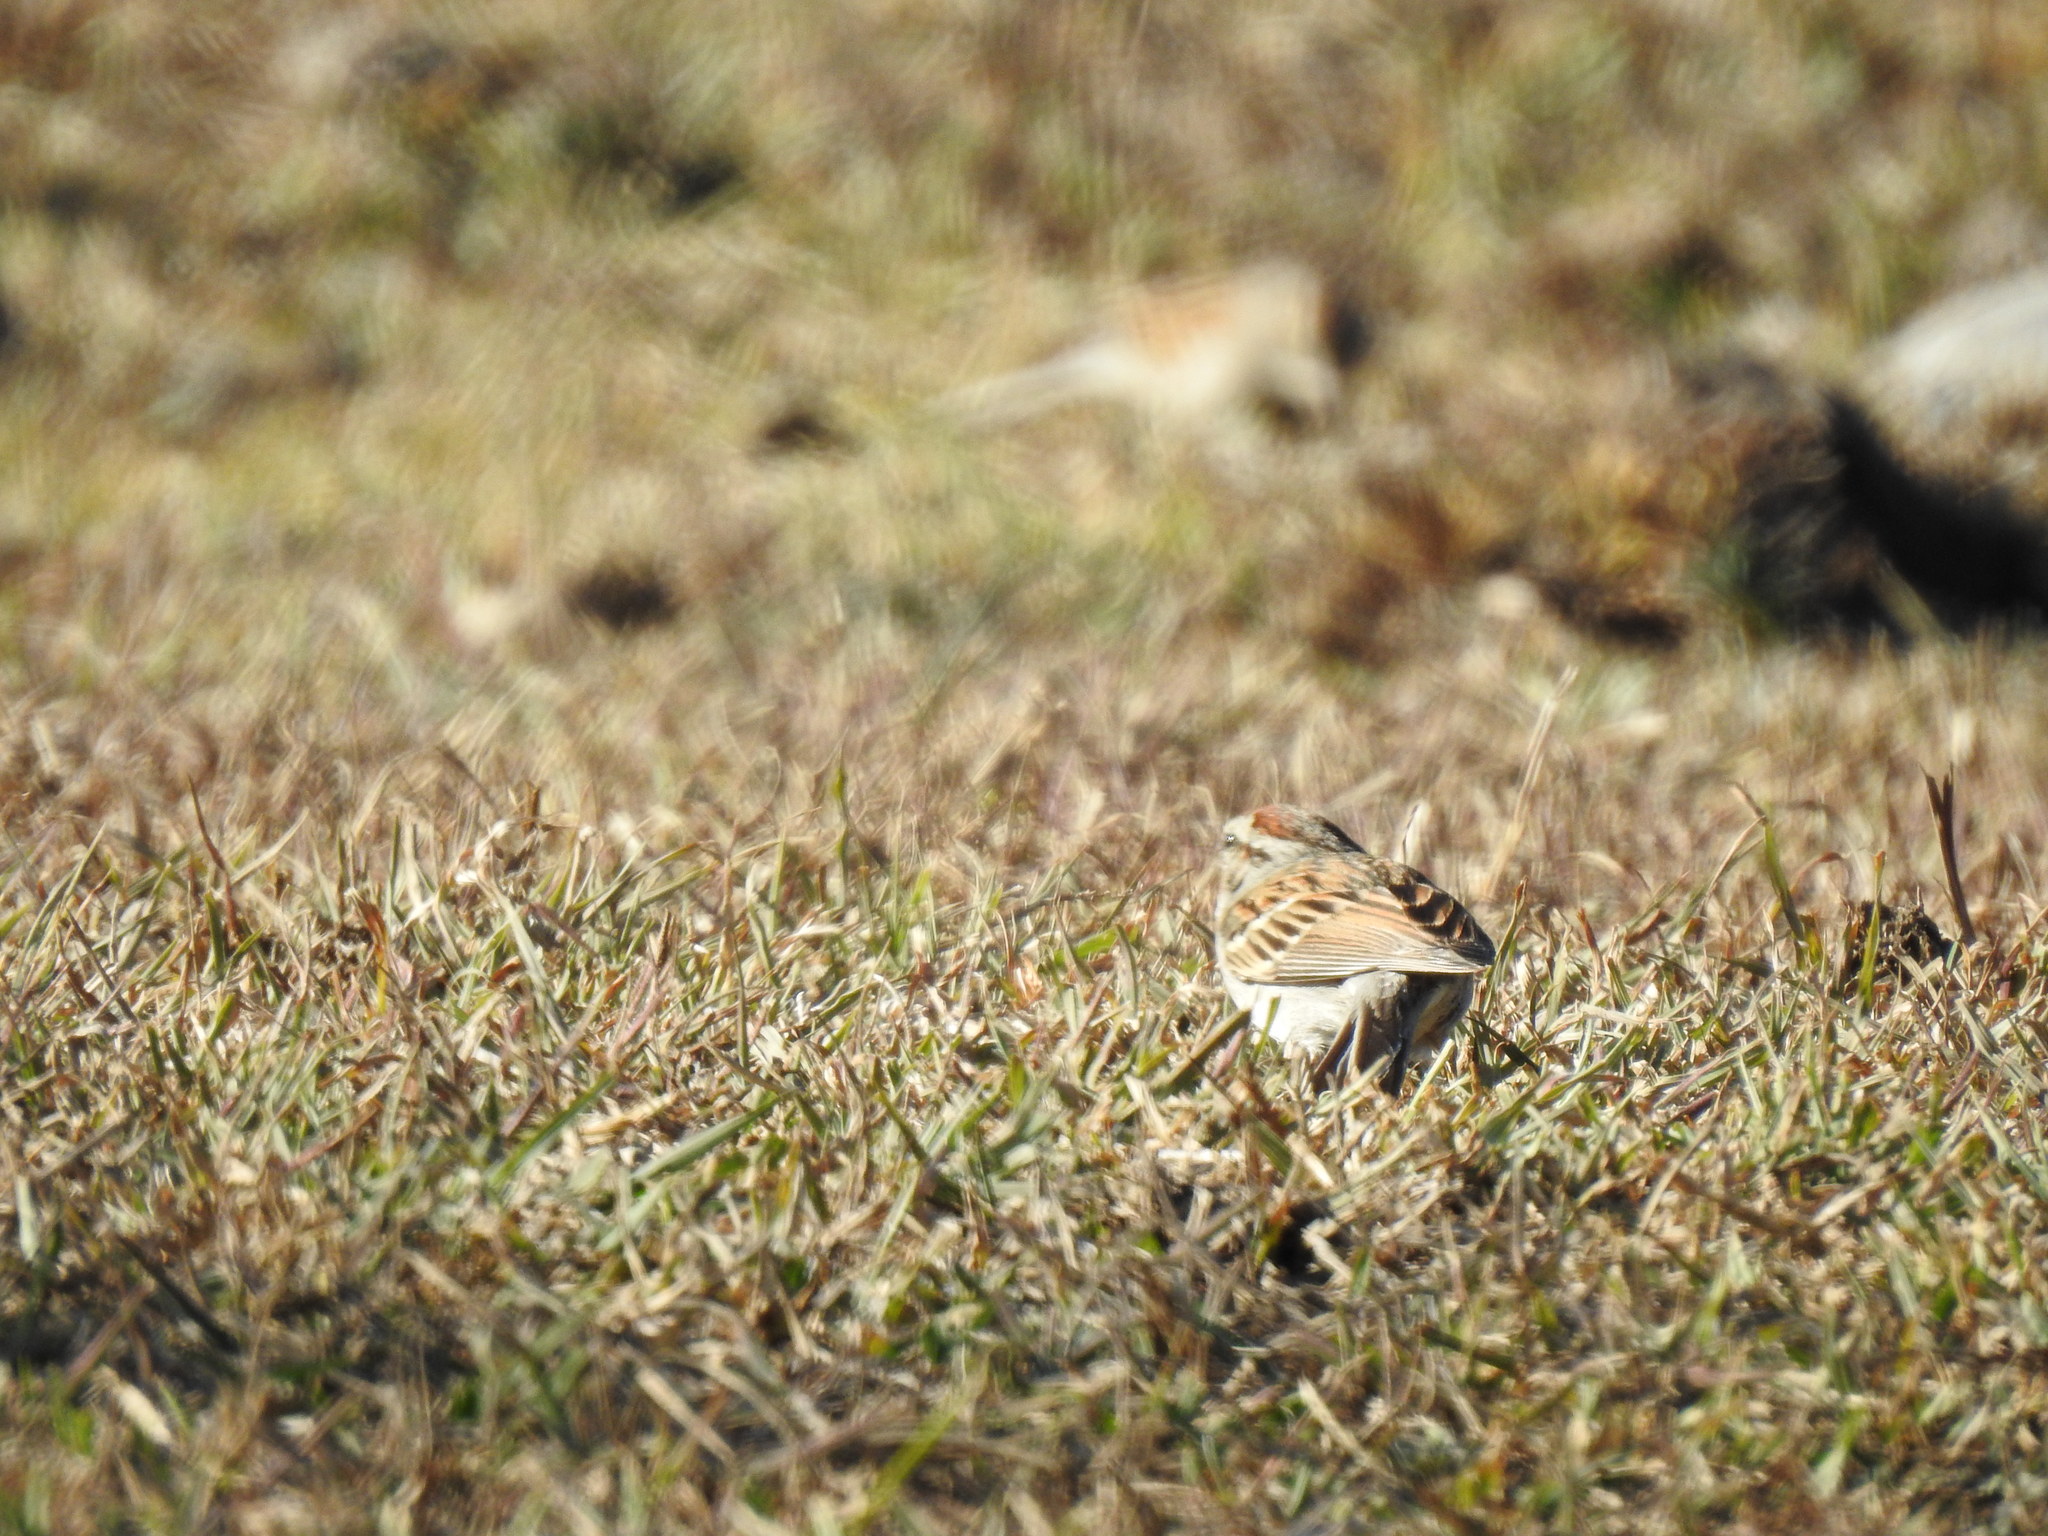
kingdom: Animalia
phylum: Chordata
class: Aves
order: Passeriformes
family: Passerellidae
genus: Spizella
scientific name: Spizella passerina
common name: Chipping sparrow
